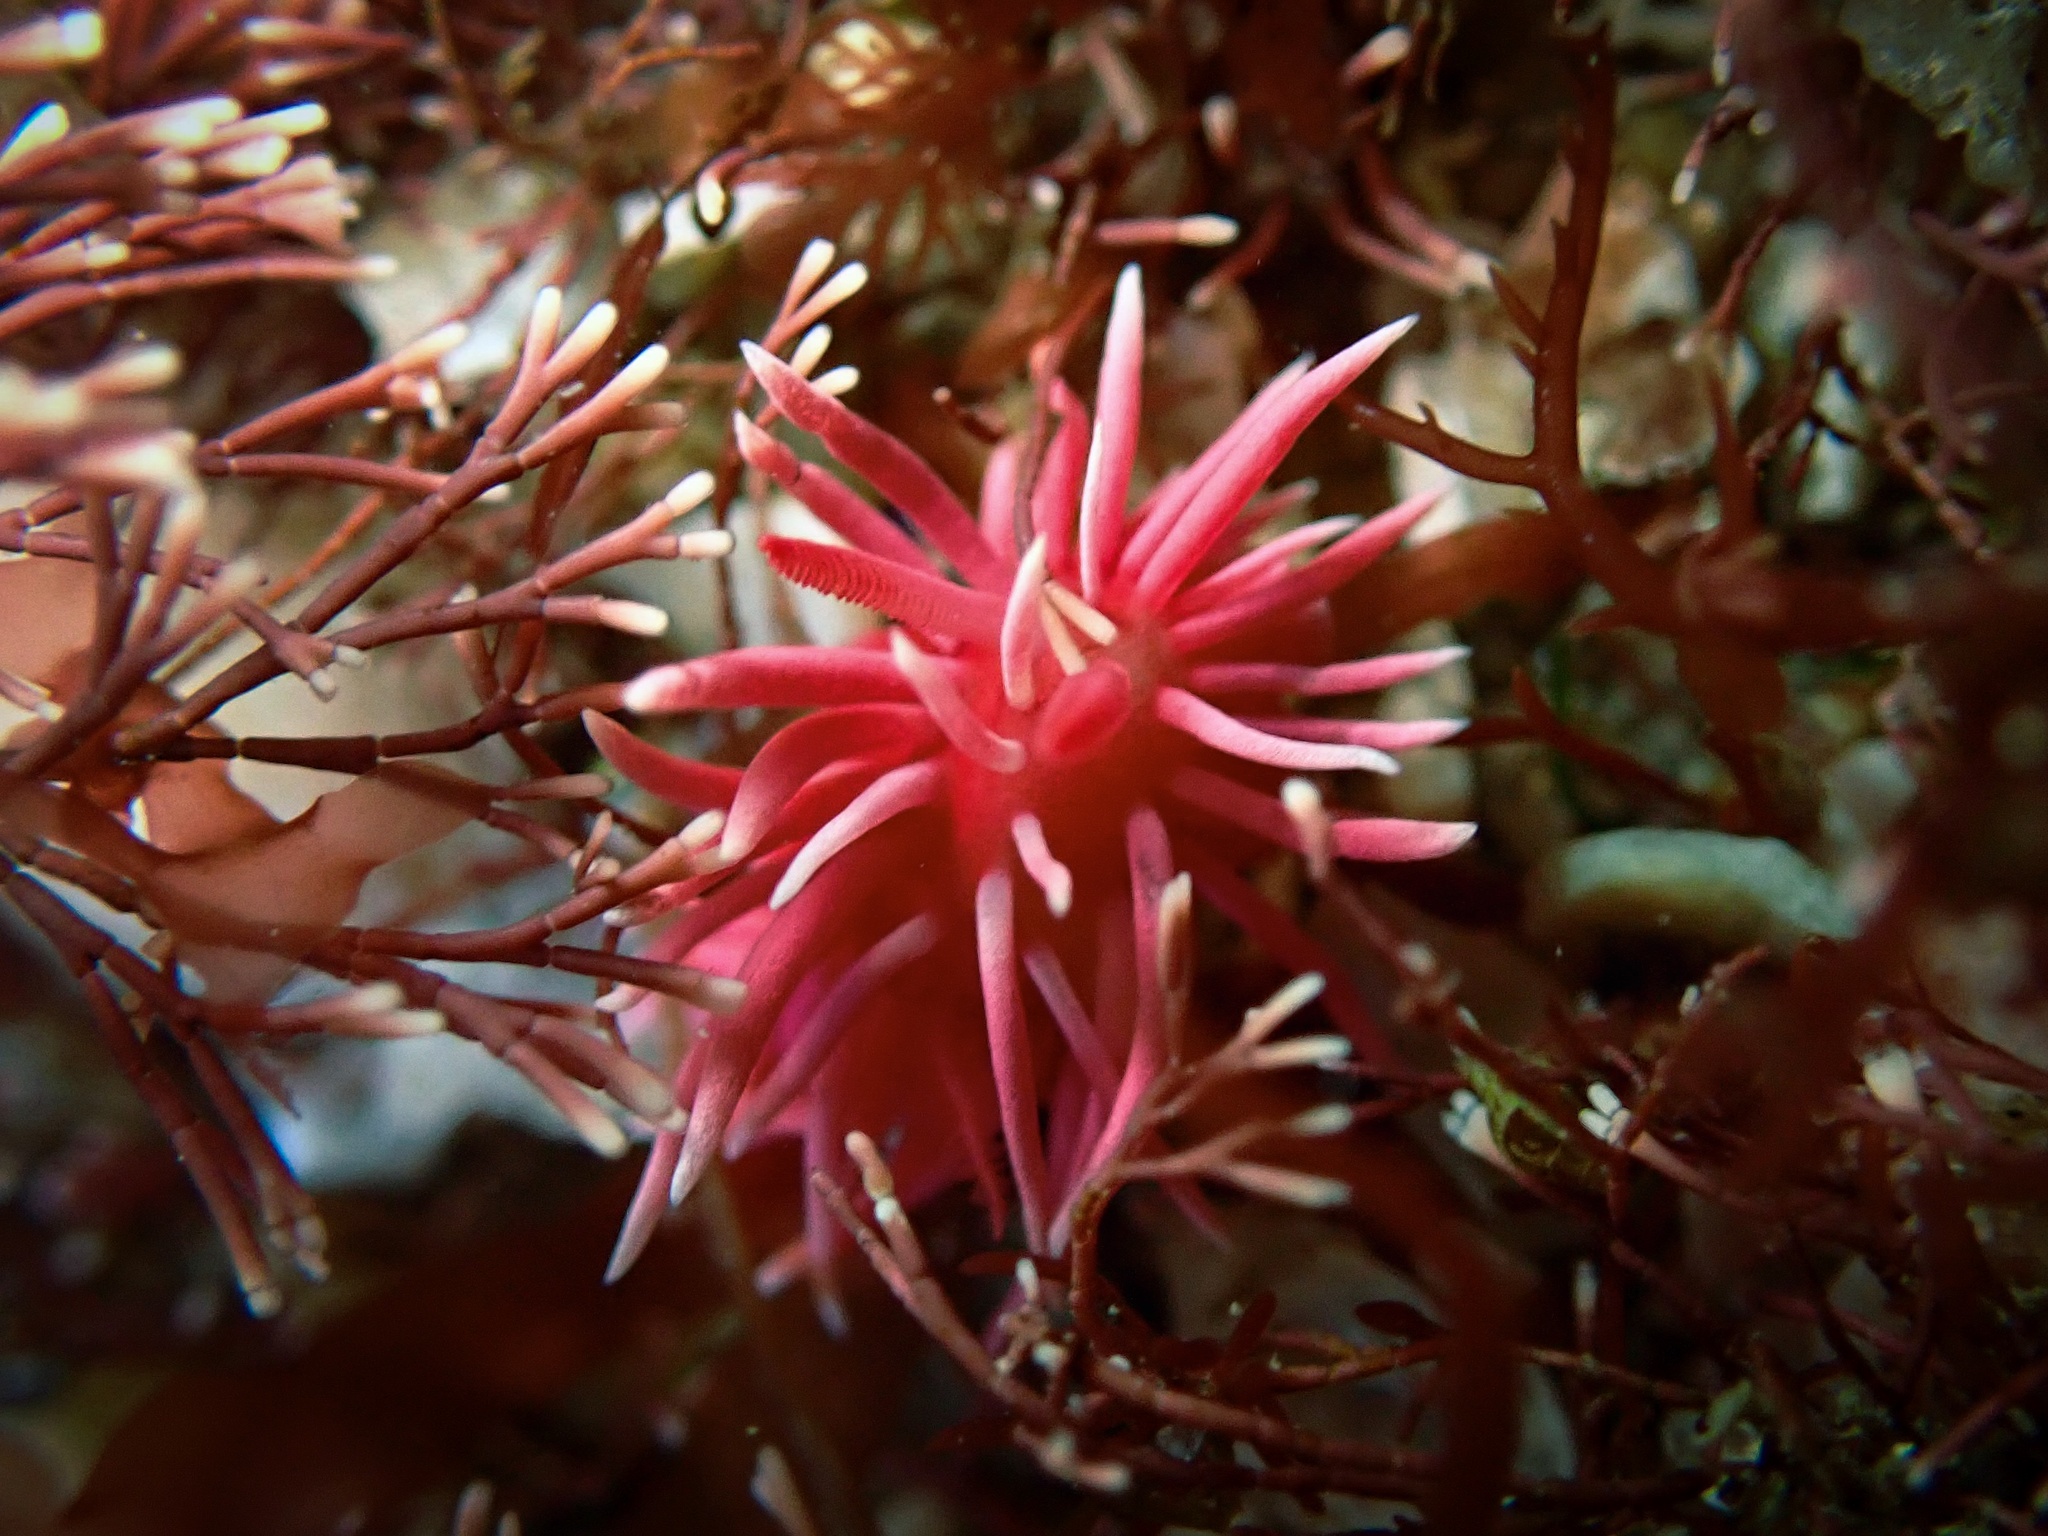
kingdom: Animalia
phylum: Mollusca
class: Gastropoda
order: Nudibranchia
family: Goniodorididae
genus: Okenia
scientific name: Okenia
